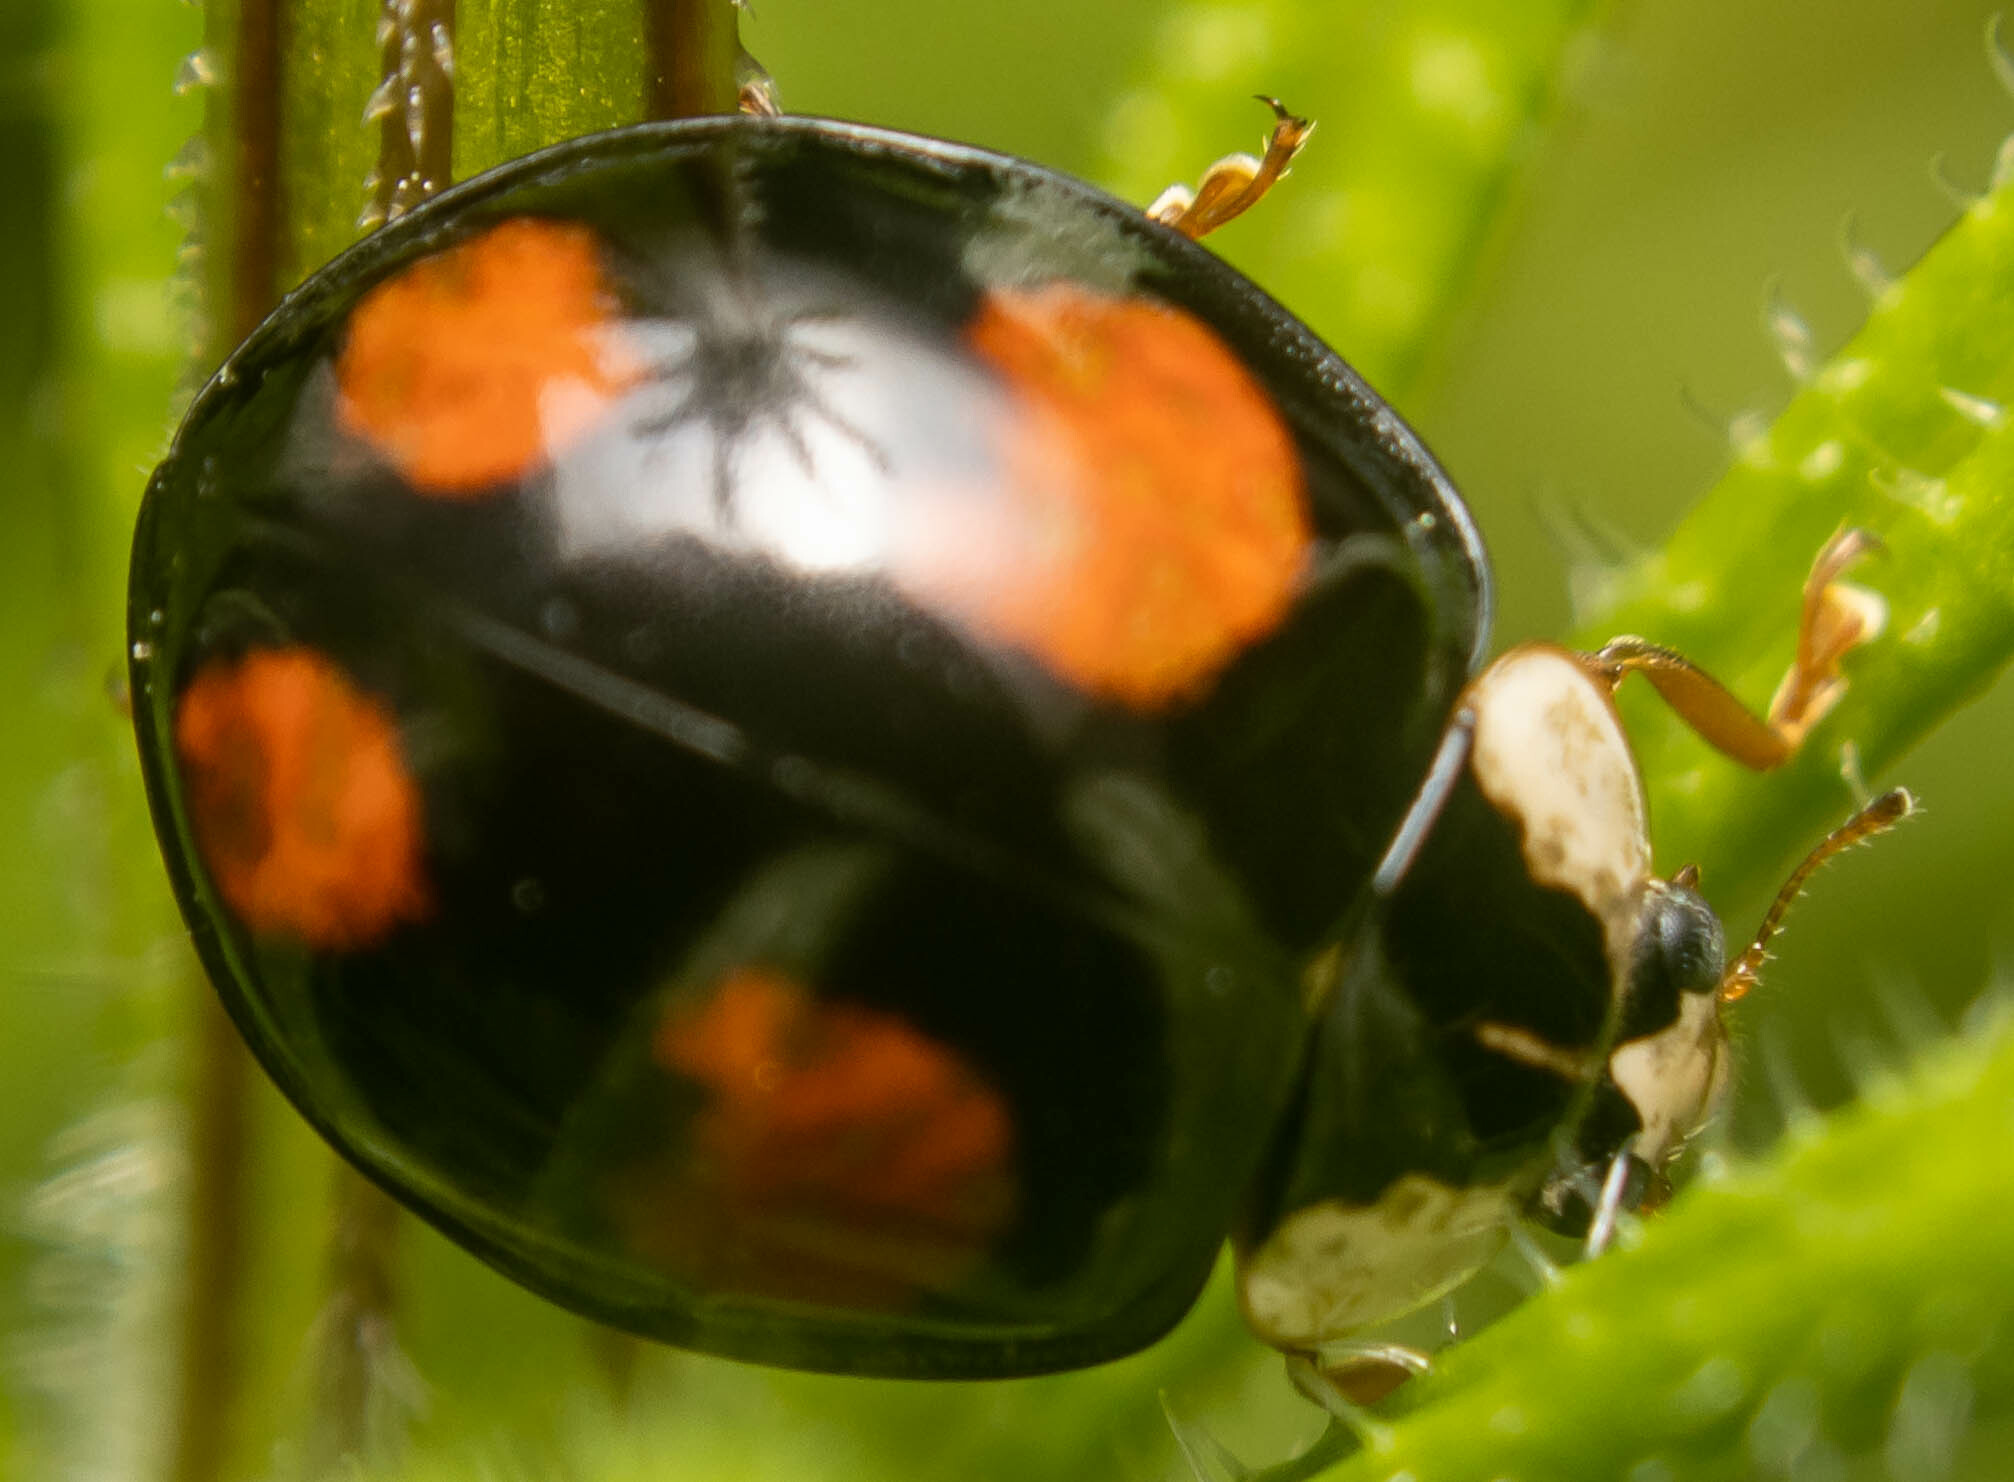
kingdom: Animalia
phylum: Arthropoda
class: Insecta
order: Coleoptera
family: Coccinellidae
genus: Harmonia
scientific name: Harmonia axyridis
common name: Harlequin ladybird
